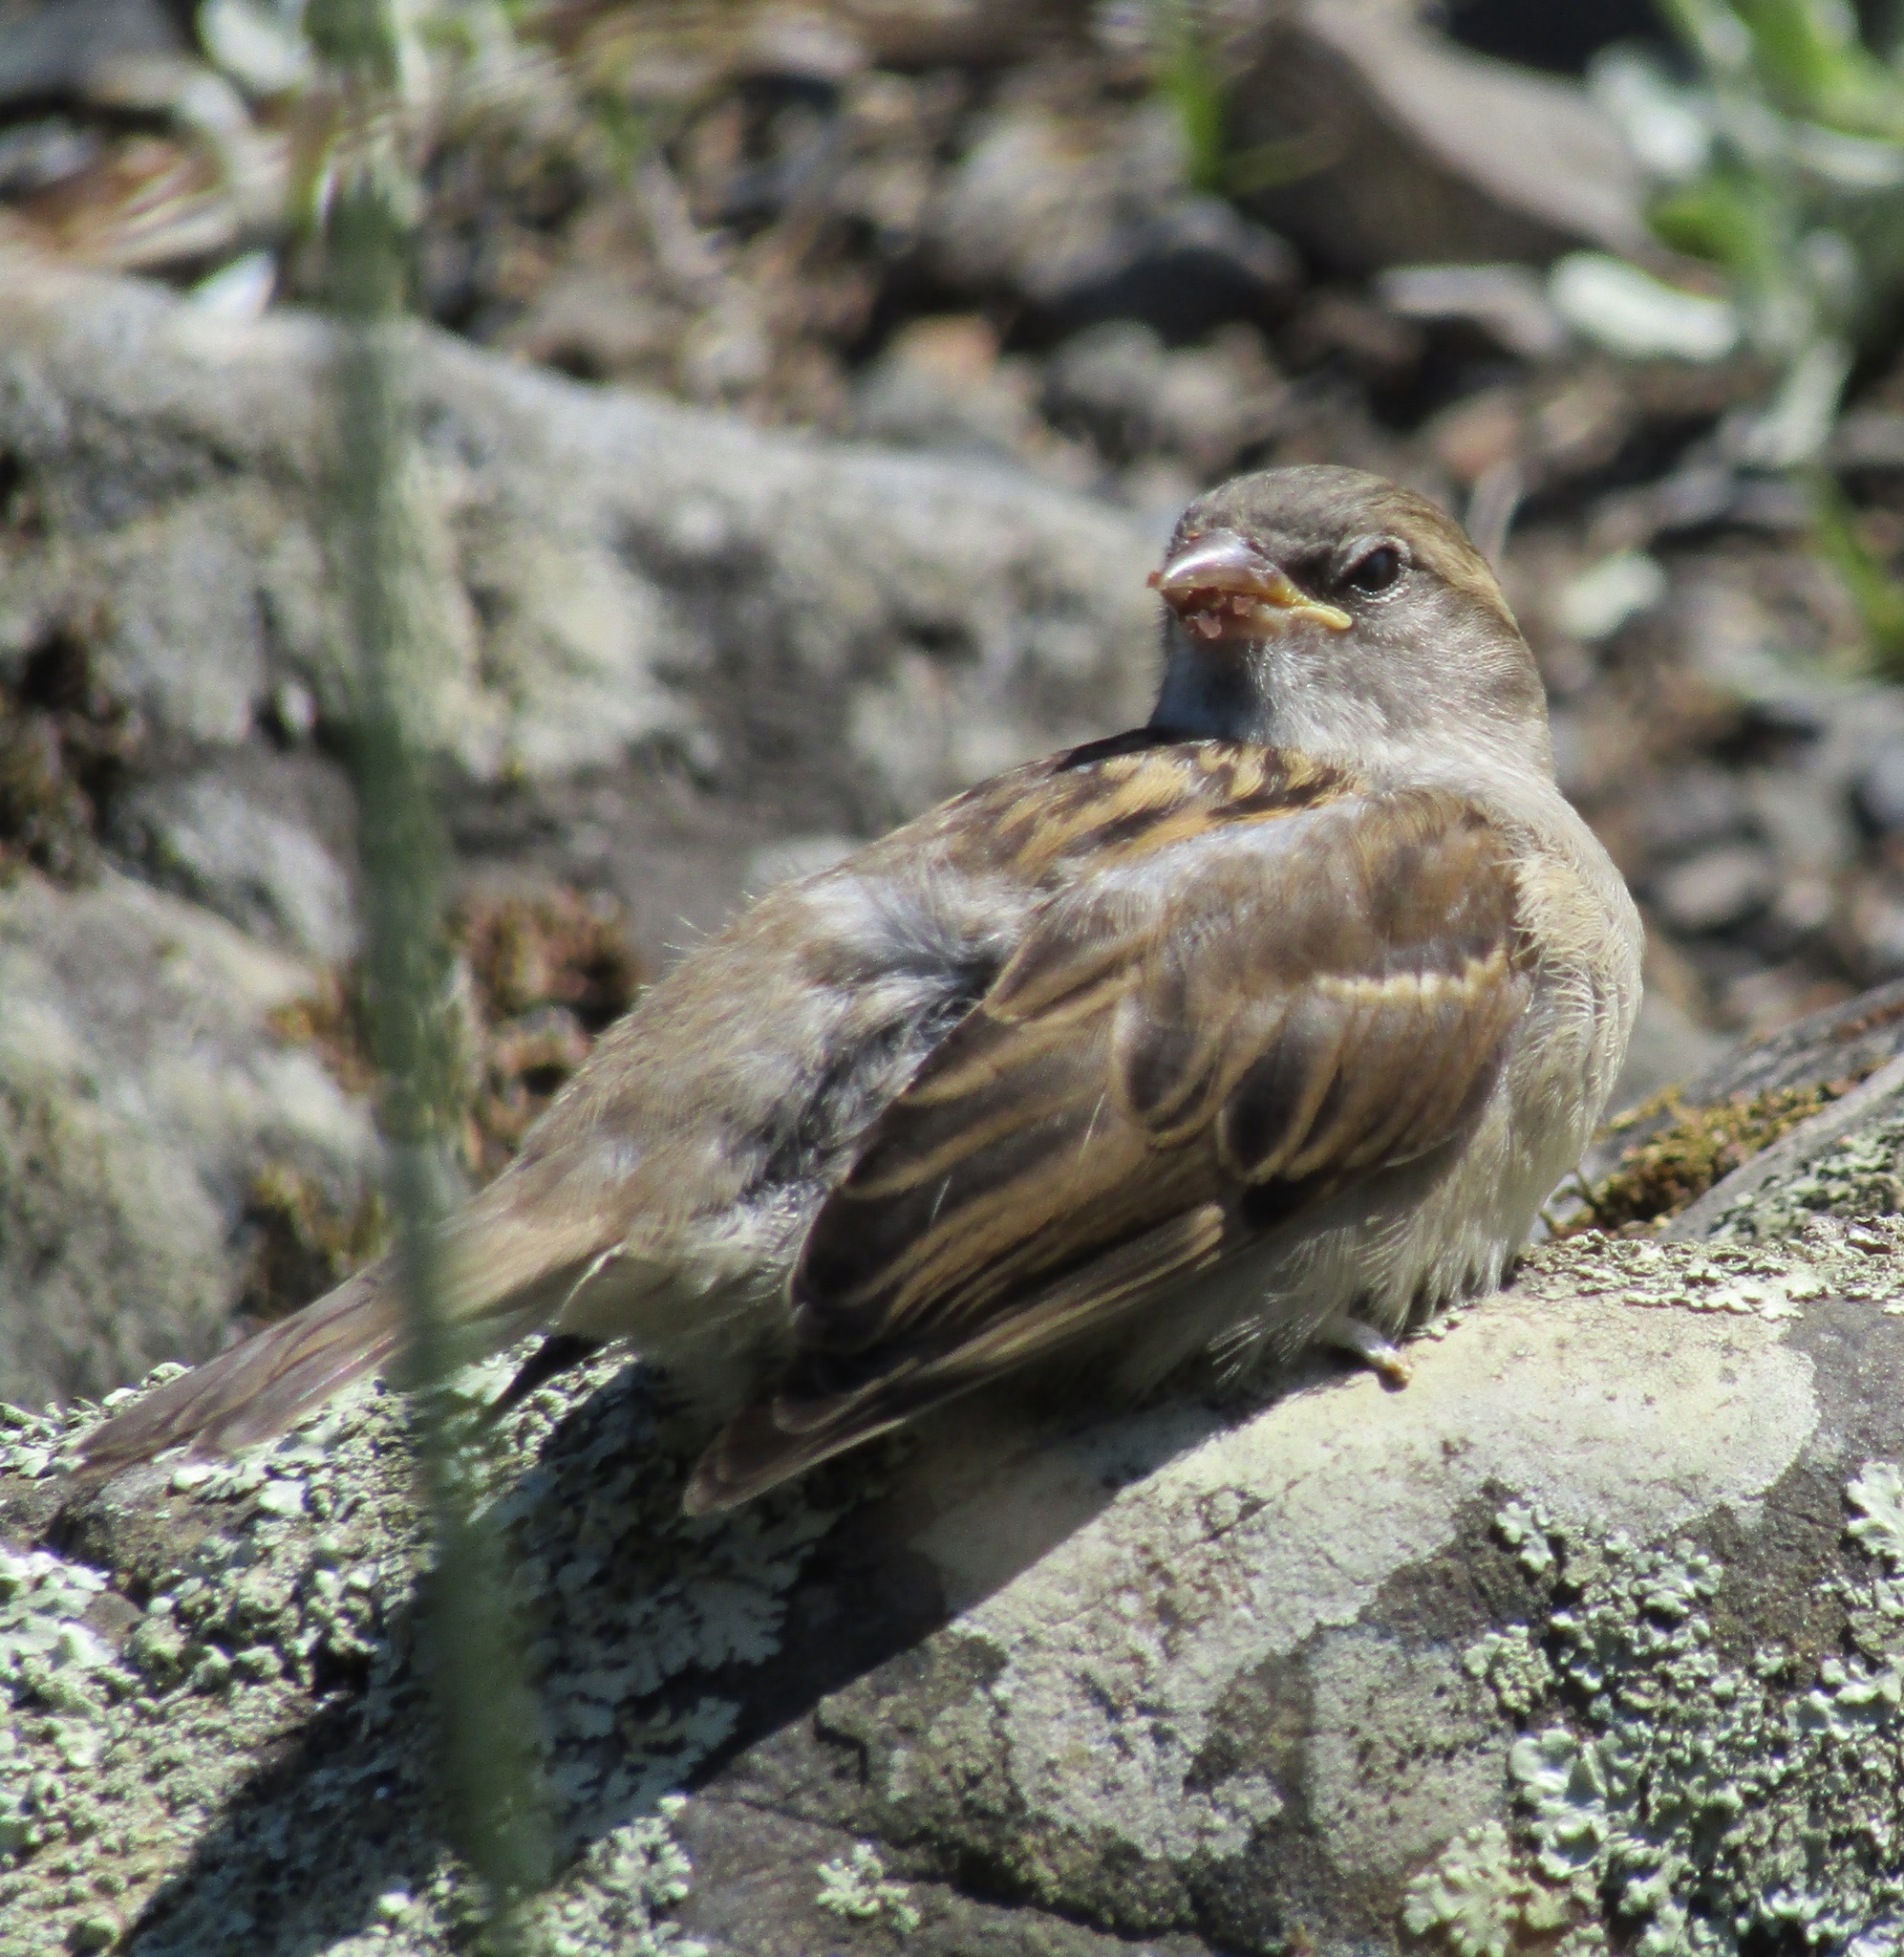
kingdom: Animalia
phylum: Chordata
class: Aves
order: Passeriformes
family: Passeridae
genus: Passer
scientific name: Passer domesticus
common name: House sparrow
